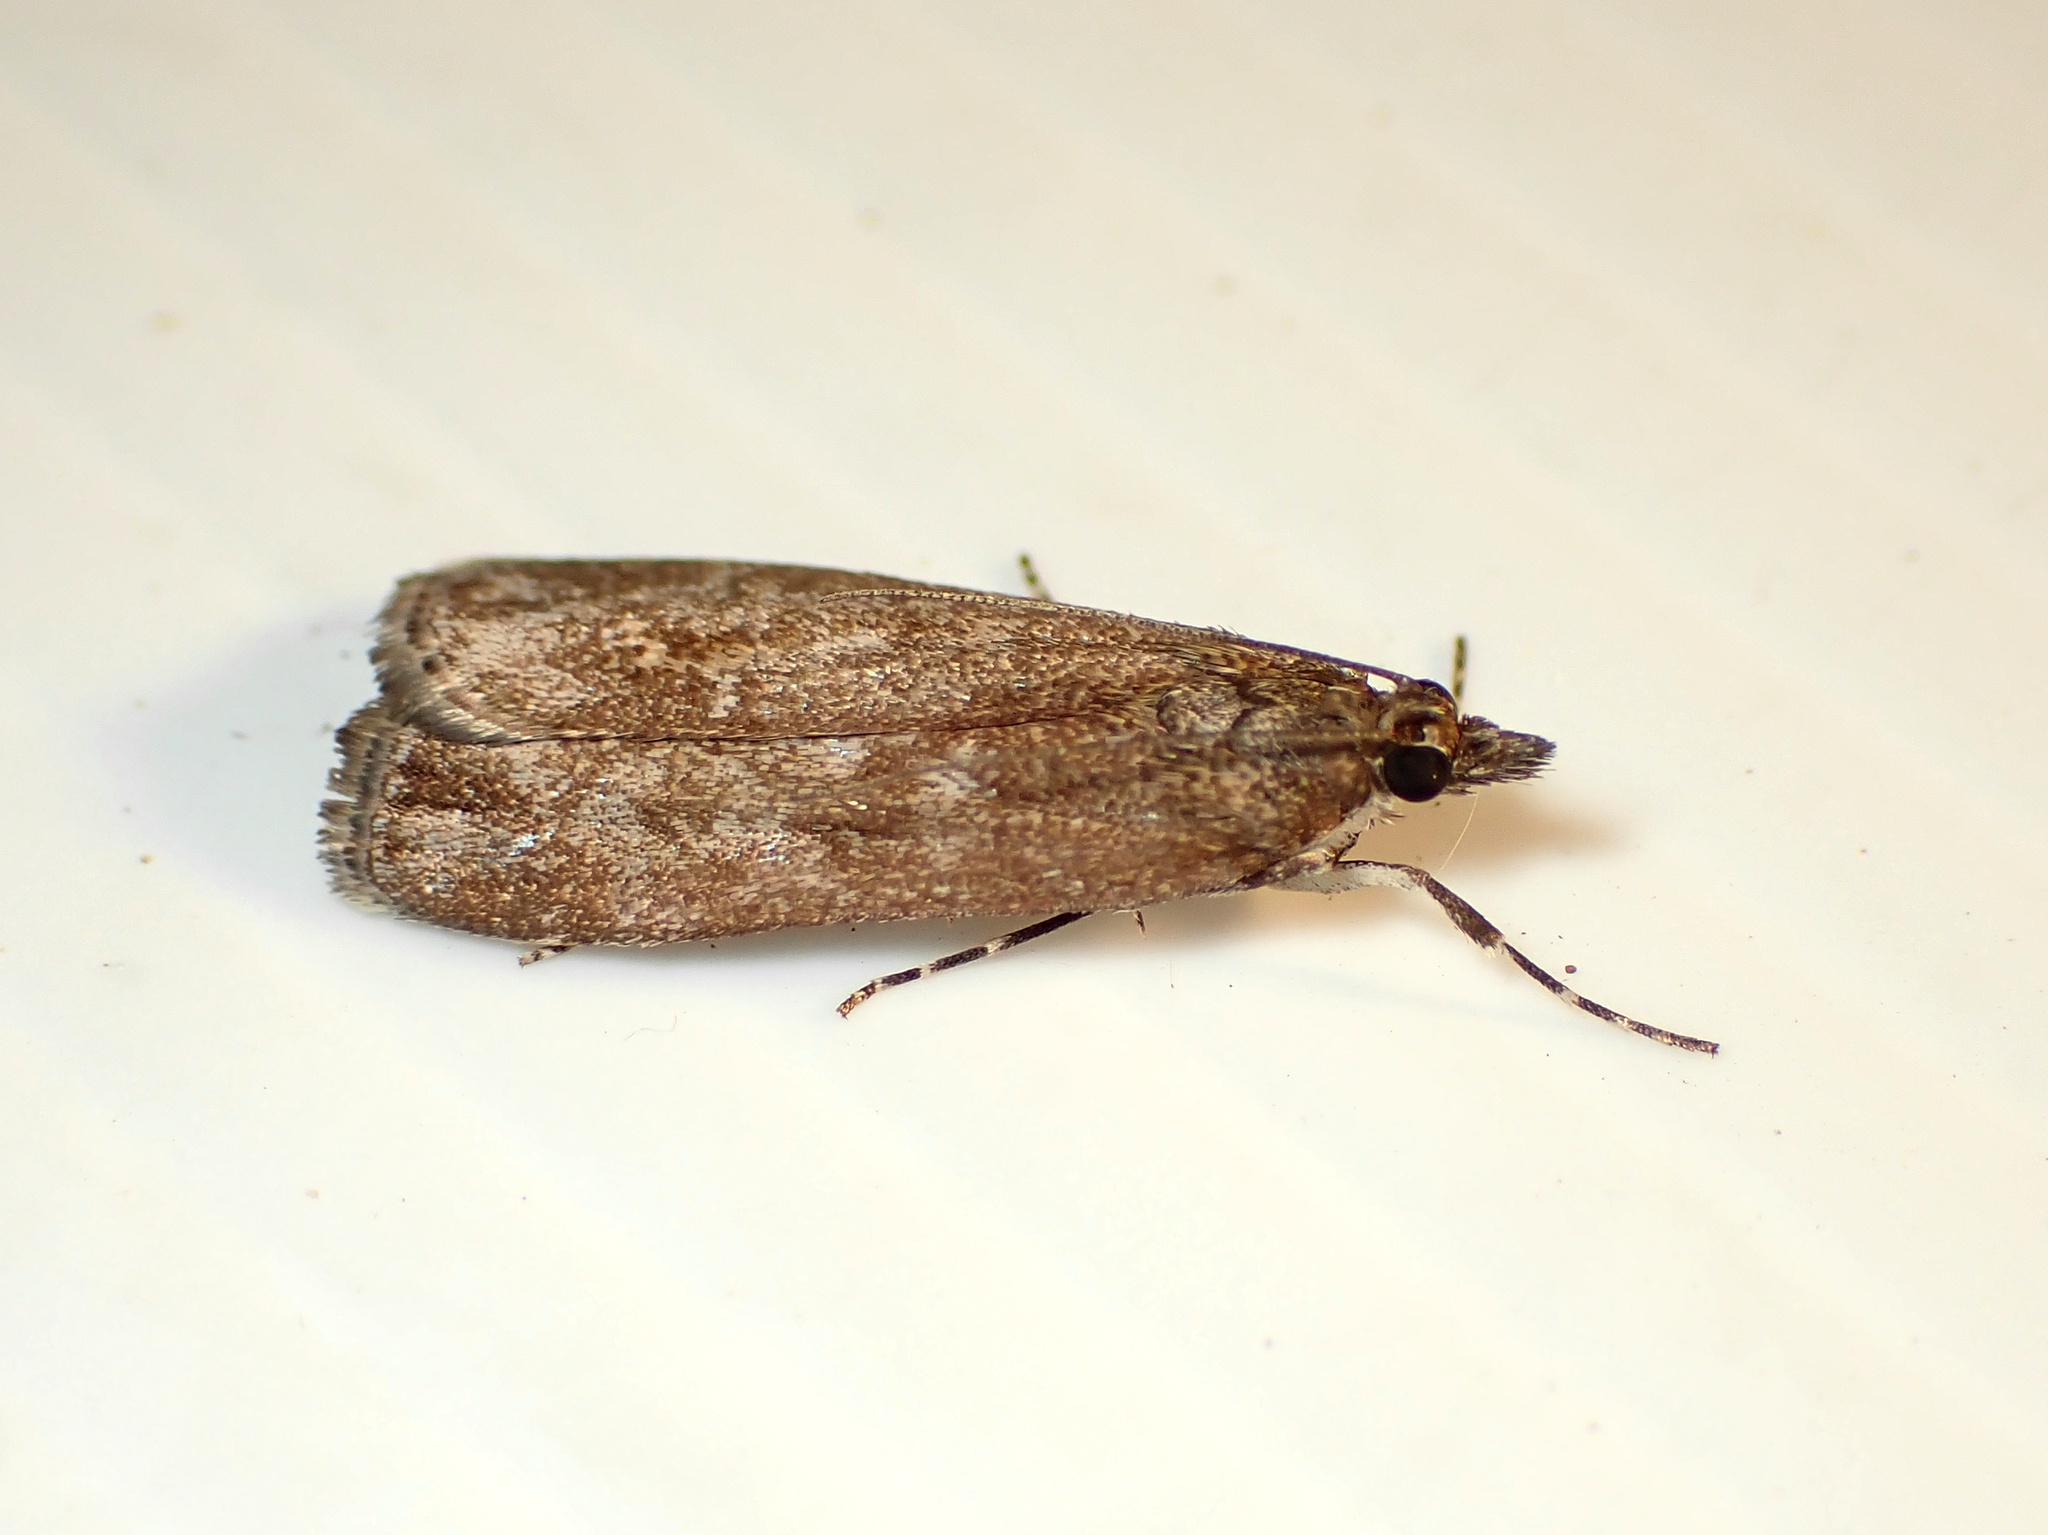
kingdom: Animalia
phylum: Arthropoda
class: Insecta
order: Lepidoptera
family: Crambidae
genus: Eudonia
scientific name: Eudonia submarginalis
